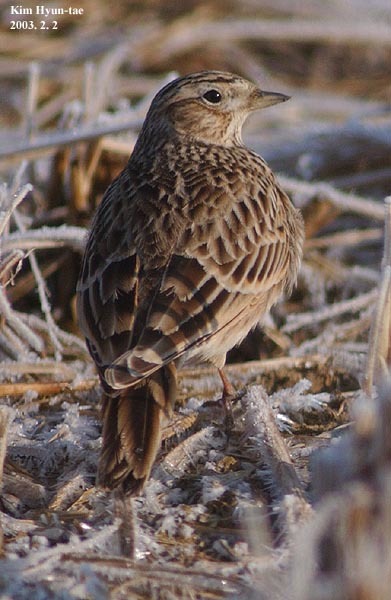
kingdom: Animalia
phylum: Chordata
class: Aves
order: Passeriformes
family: Alaudidae
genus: Alauda
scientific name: Alauda arvensis
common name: Eurasian skylark
